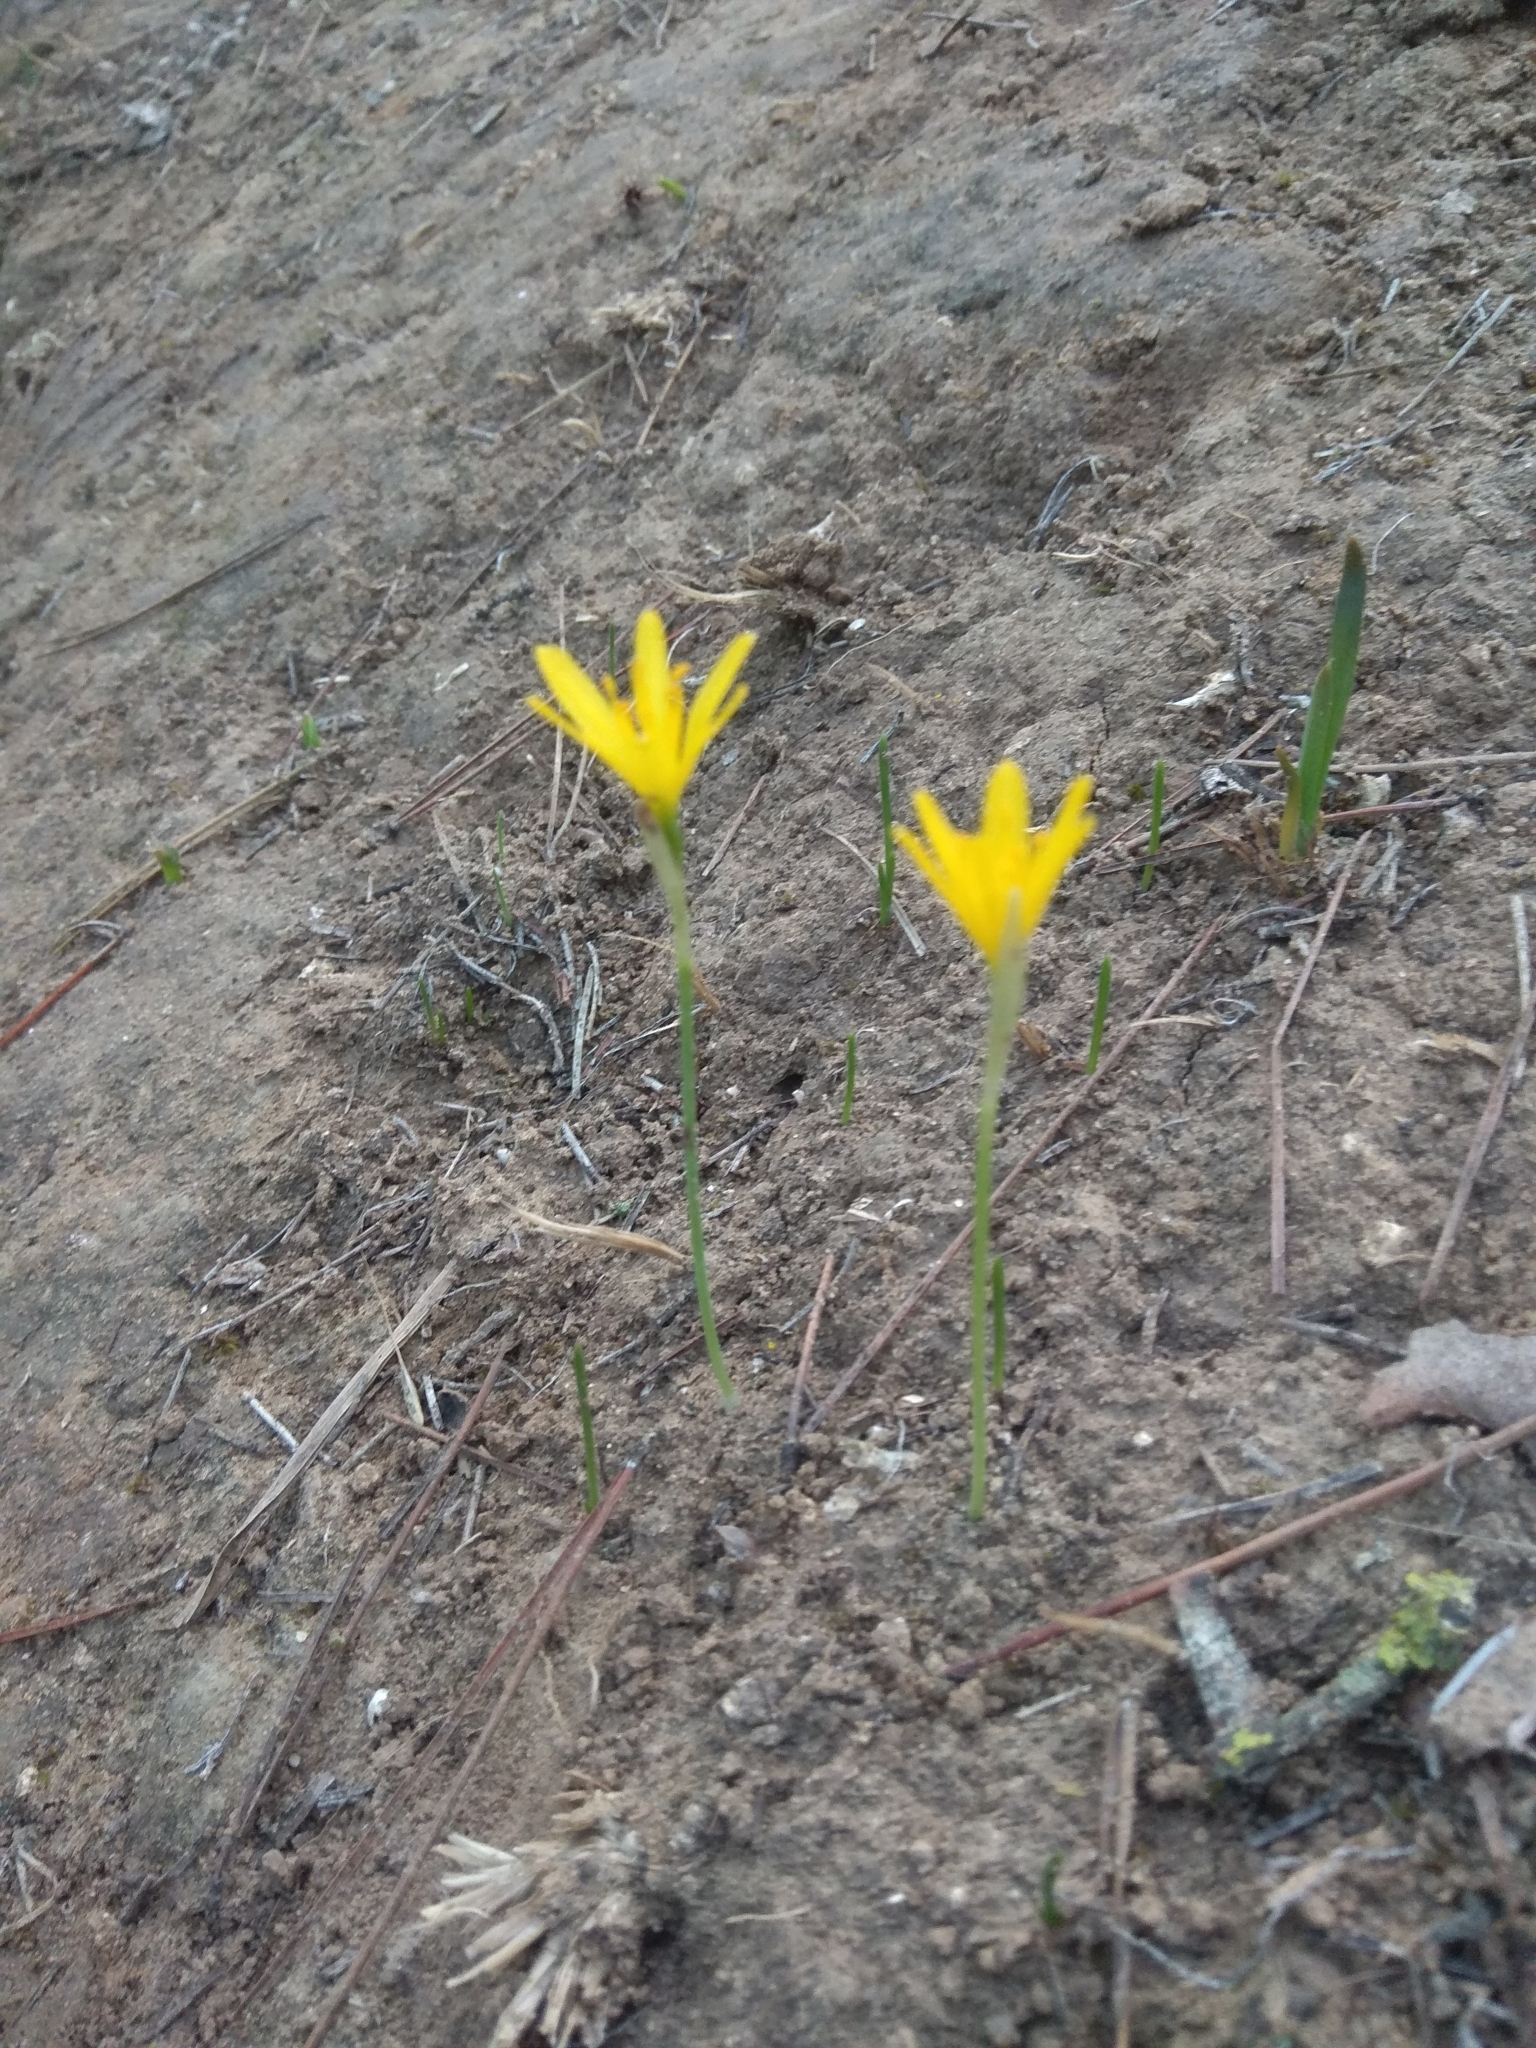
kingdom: Plantae
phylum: Tracheophyta
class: Liliopsida
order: Asparagales
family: Amaryllidaceae
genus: Narcissus
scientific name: Narcissus cavanillesii
